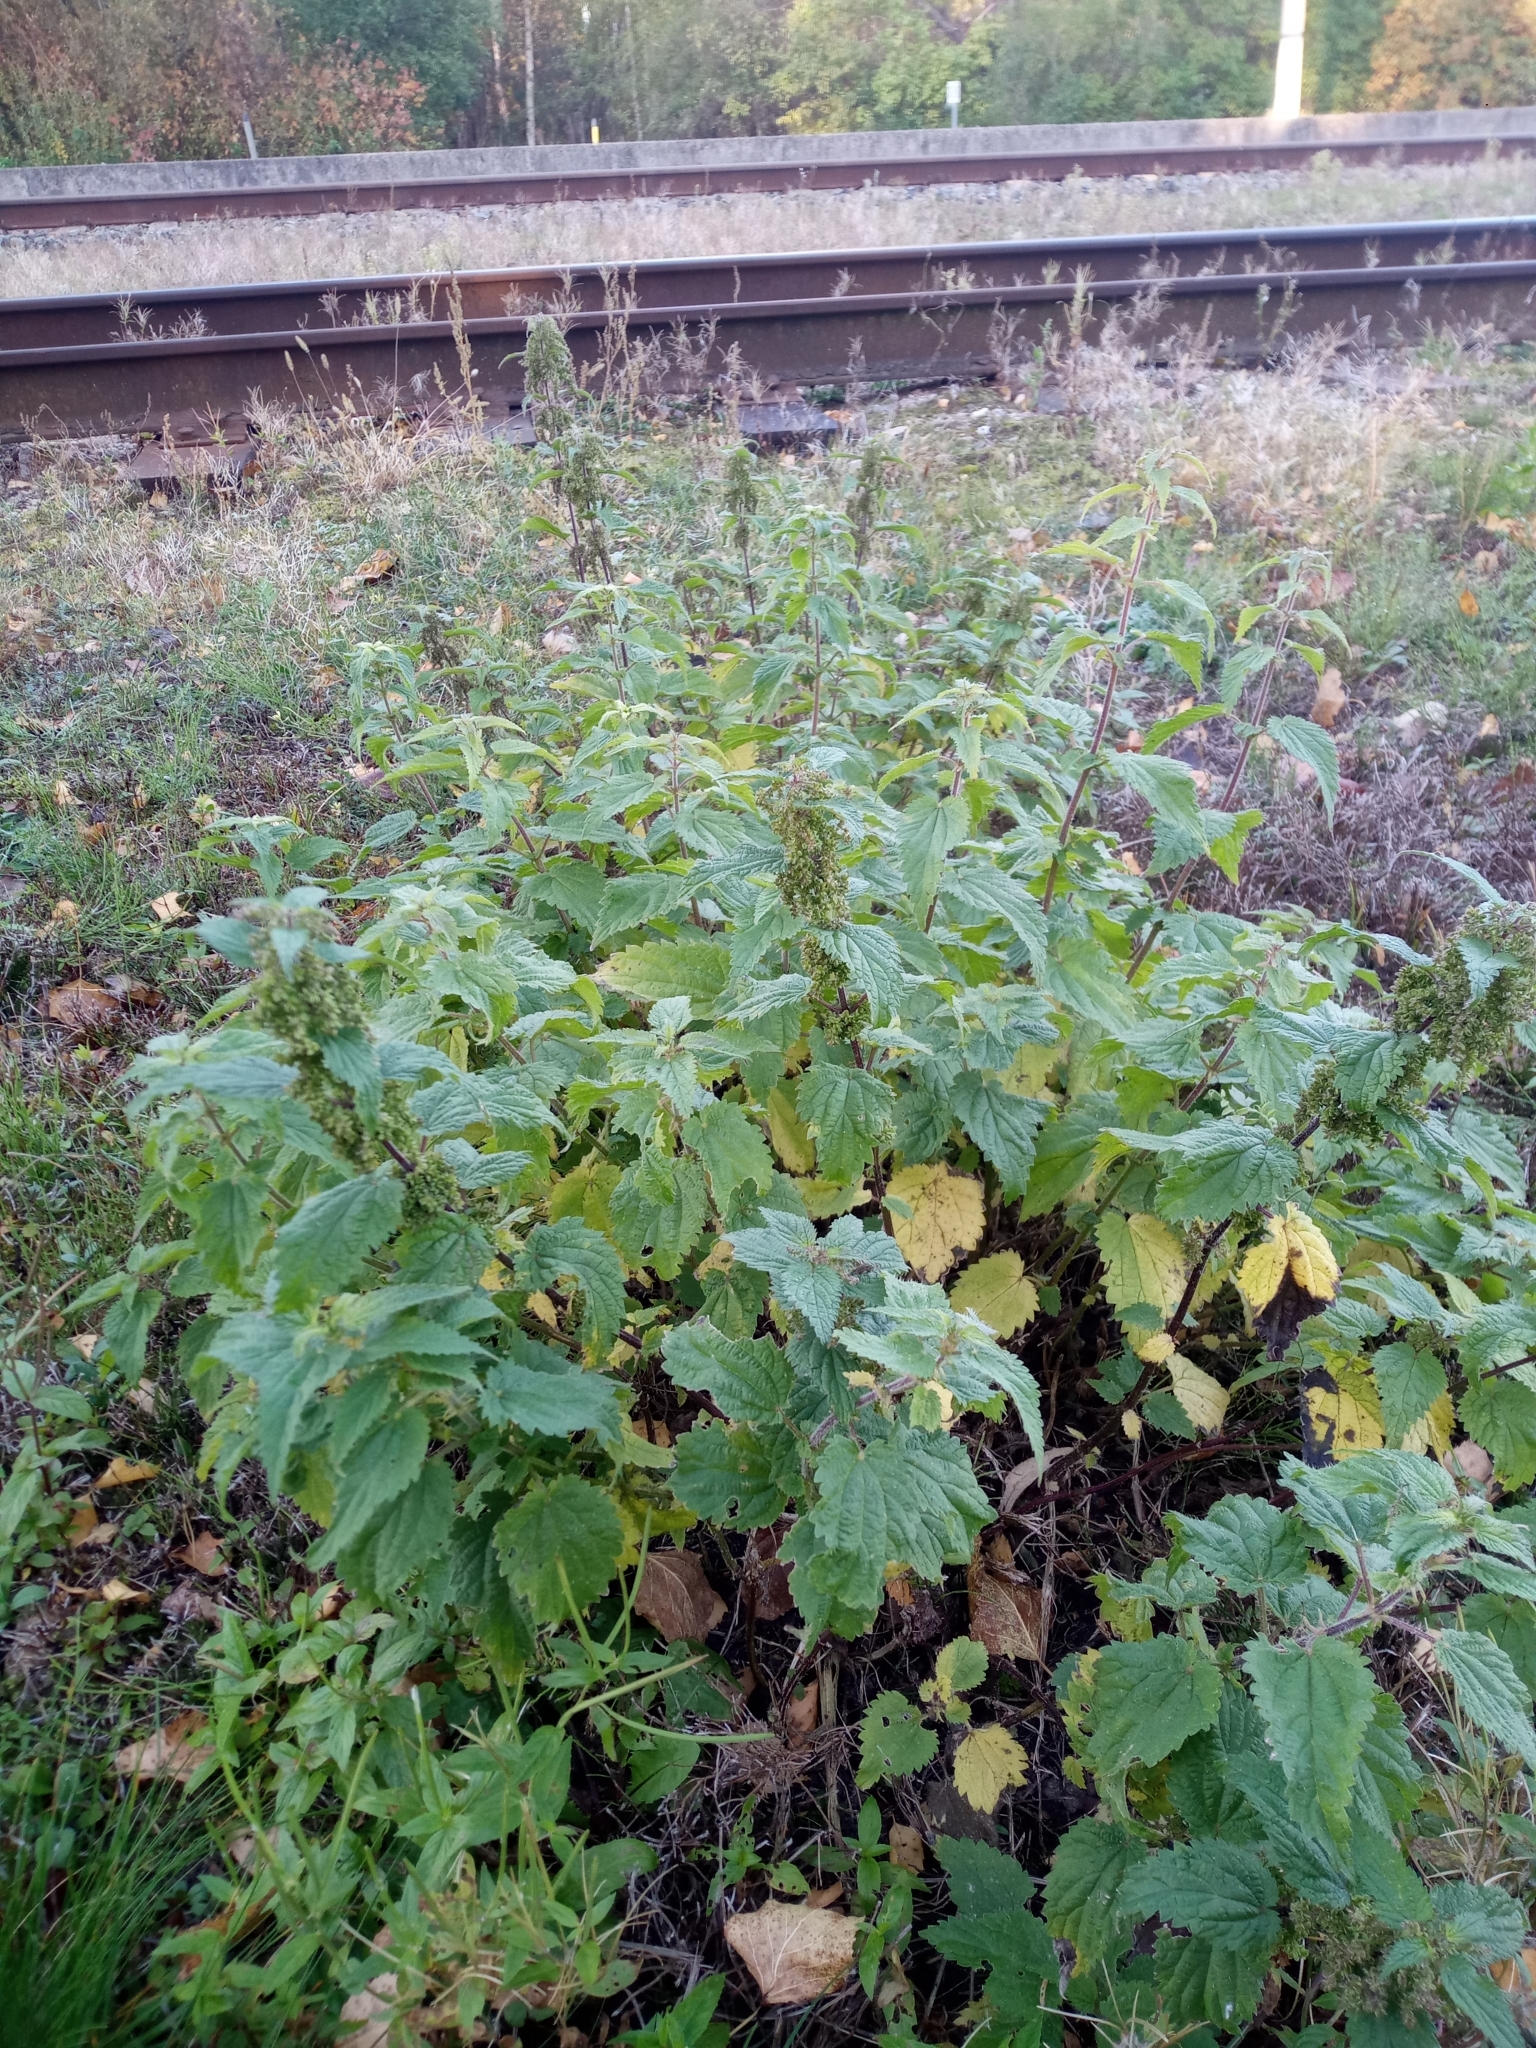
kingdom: Plantae
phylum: Tracheophyta
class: Magnoliopsida
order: Rosales
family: Urticaceae
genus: Urtica
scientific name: Urtica dioica
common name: Common nettle
